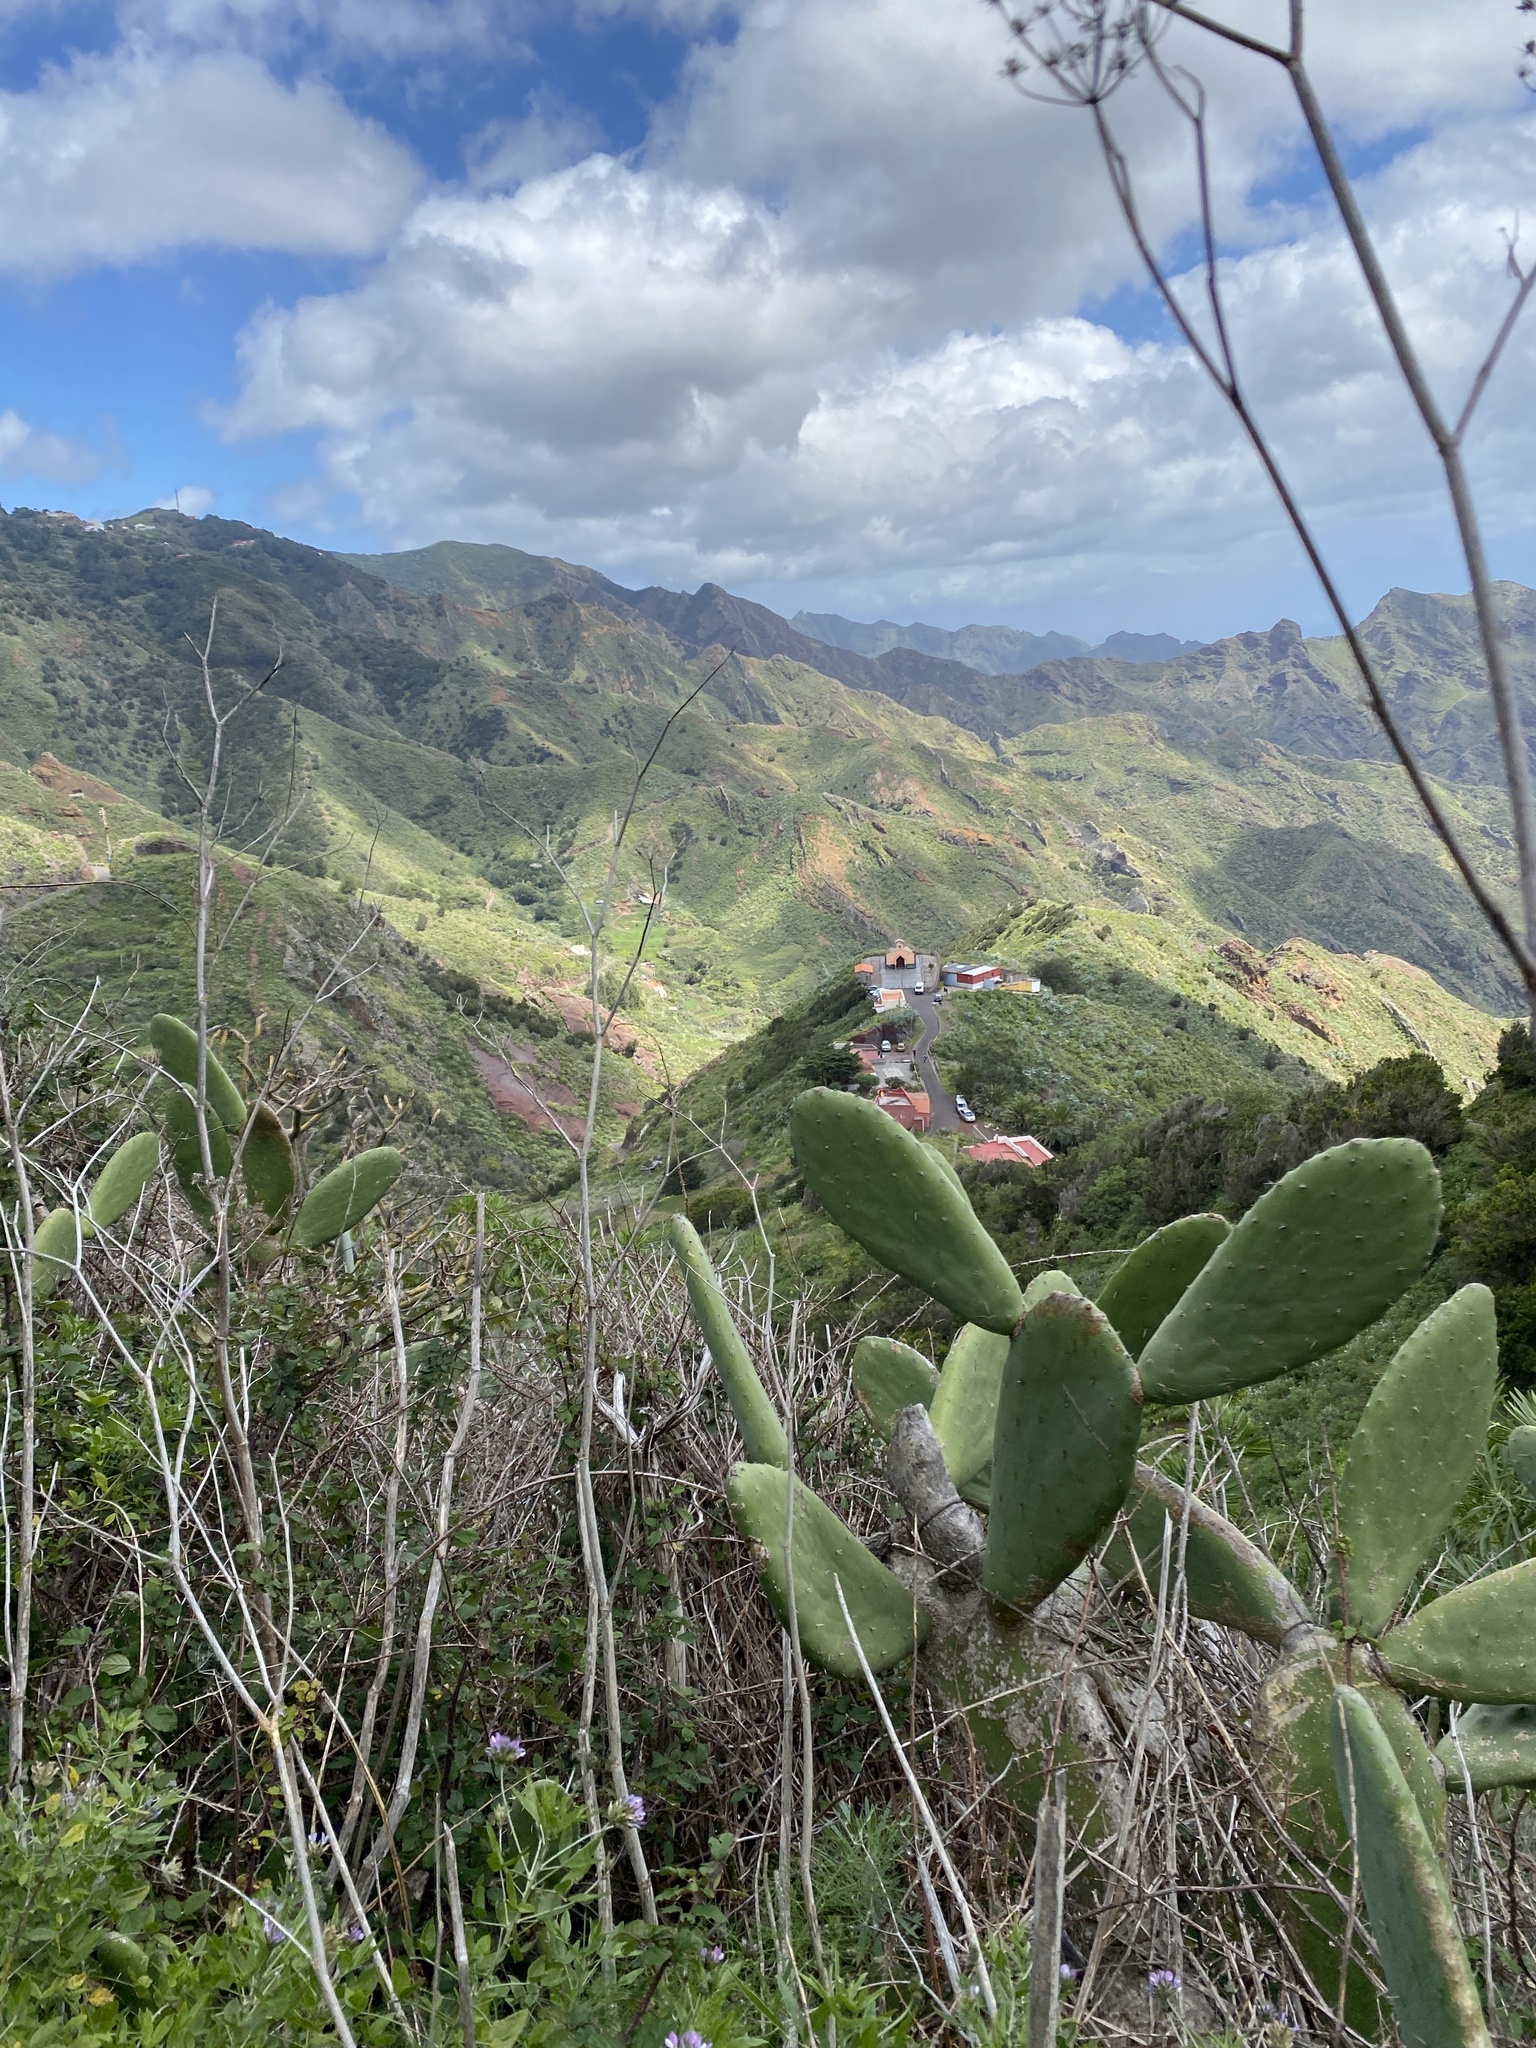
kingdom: Plantae
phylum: Tracheophyta
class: Magnoliopsida
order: Caryophyllales
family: Cactaceae
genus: Opuntia
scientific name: Opuntia ficus-indica
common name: Barbary fig
